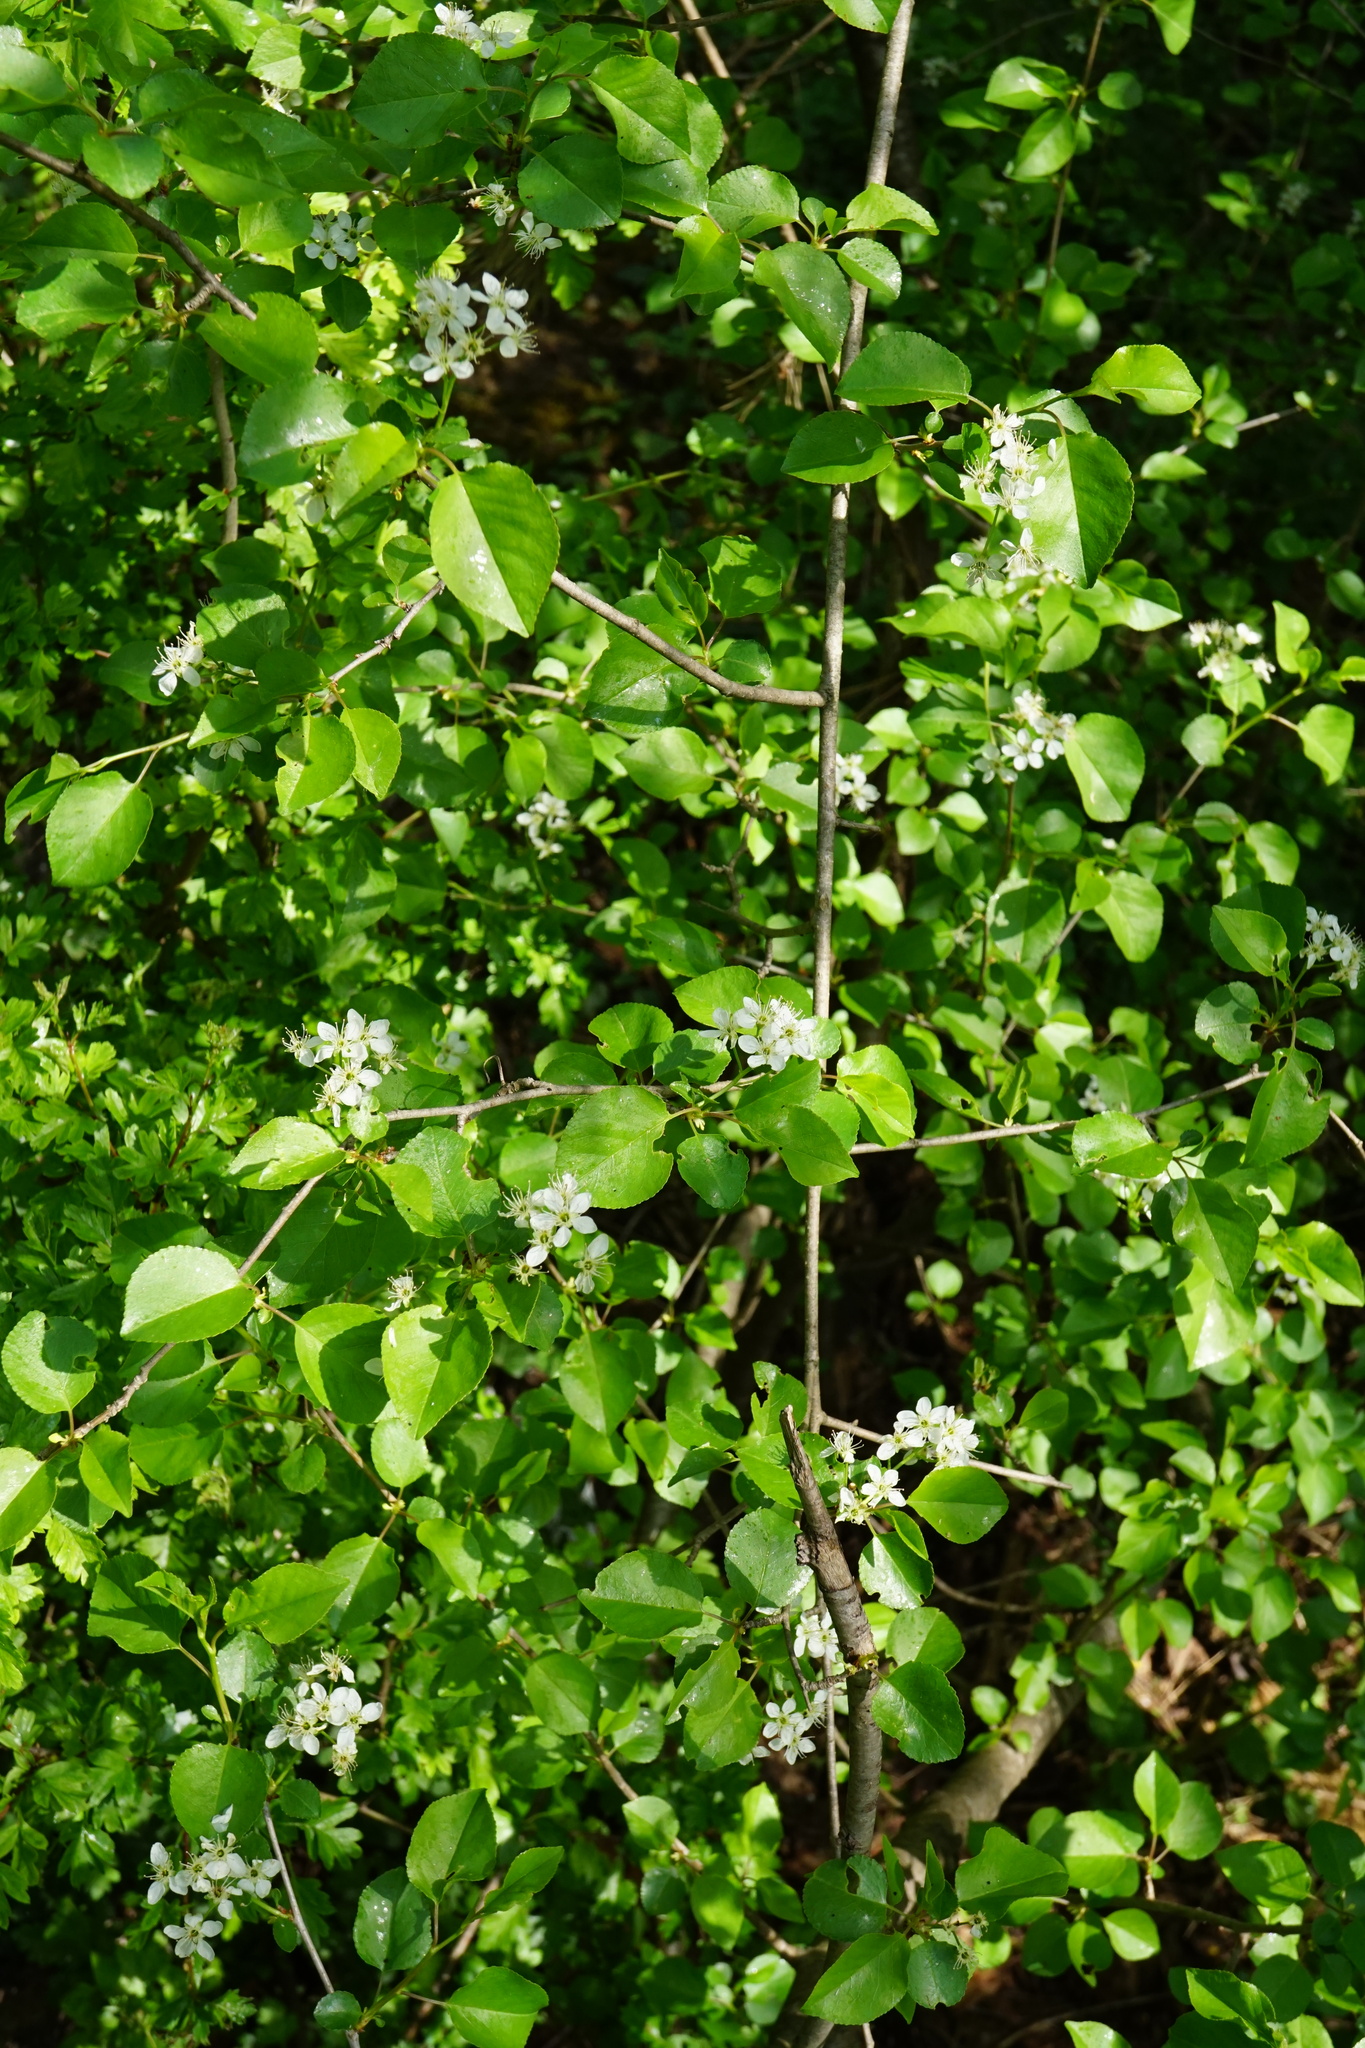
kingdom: Plantae
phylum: Tracheophyta
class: Magnoliopsida
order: Rosales
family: Rosaceae
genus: Prunus
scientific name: Prunus mahaleb
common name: Mahaleb cherry
